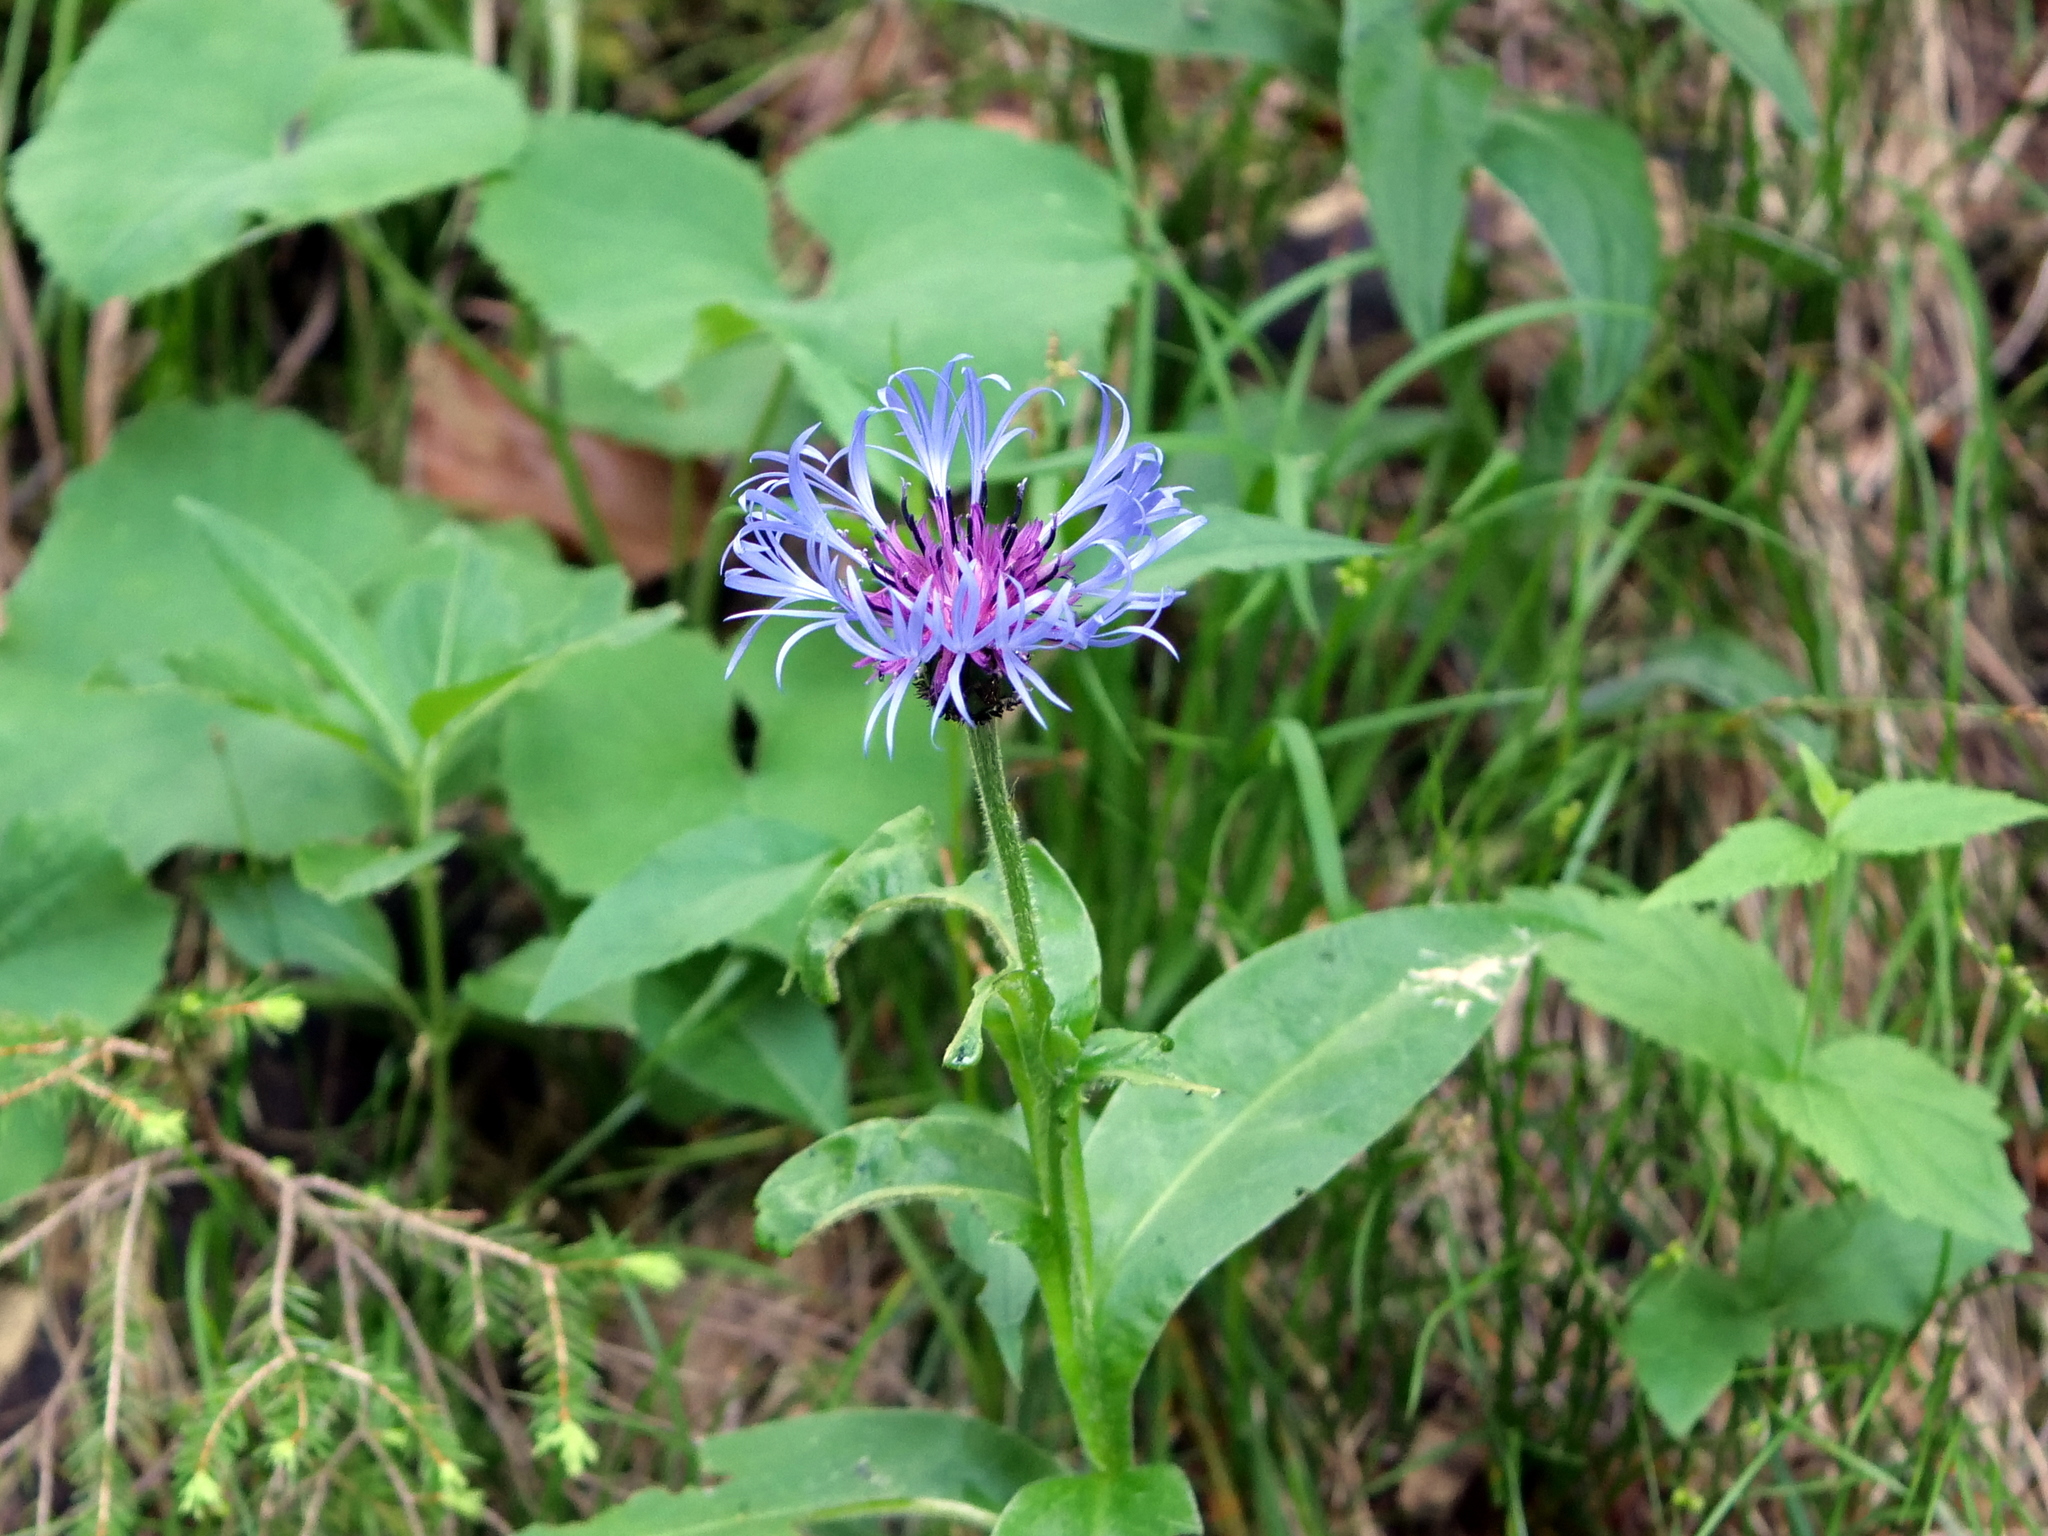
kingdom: Plantae
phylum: Tracheophyta
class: Magnoliopsida
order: Asterales
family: Asteraceae
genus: Centaurea
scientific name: Centaurea montana
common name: Perennial cornflower
